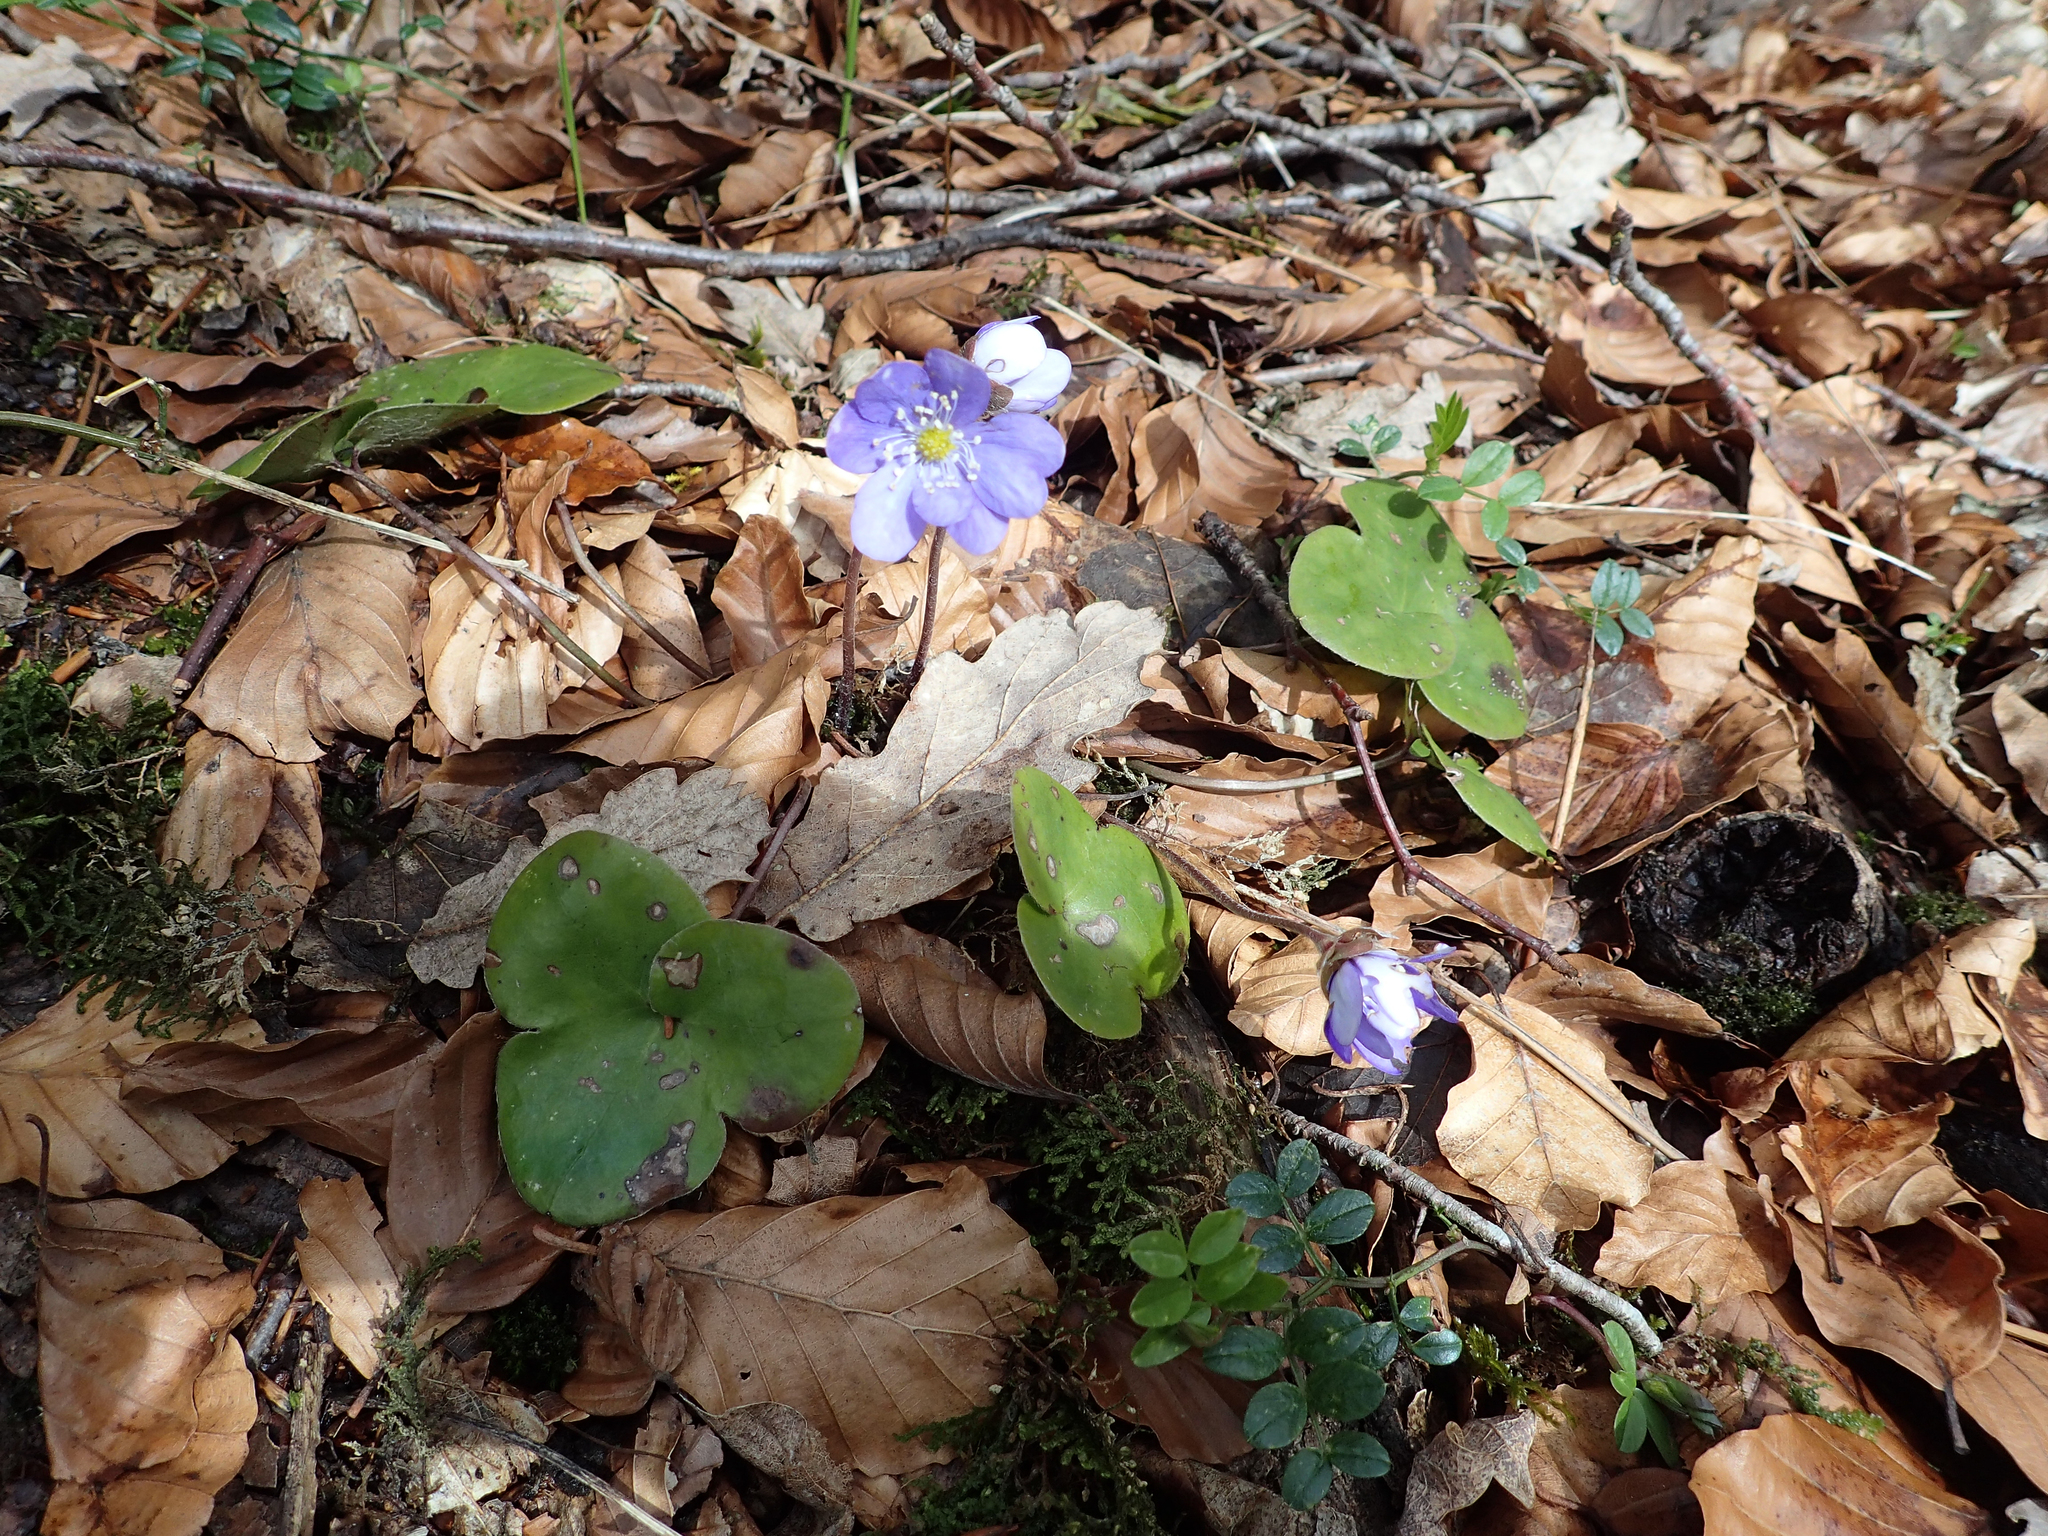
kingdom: Plantae
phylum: Tracheophyta
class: Magnoliopsida
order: Ranunculales
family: Ranunculaceae
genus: Hepatica
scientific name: Hepatica nobilis
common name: Liverleaf
